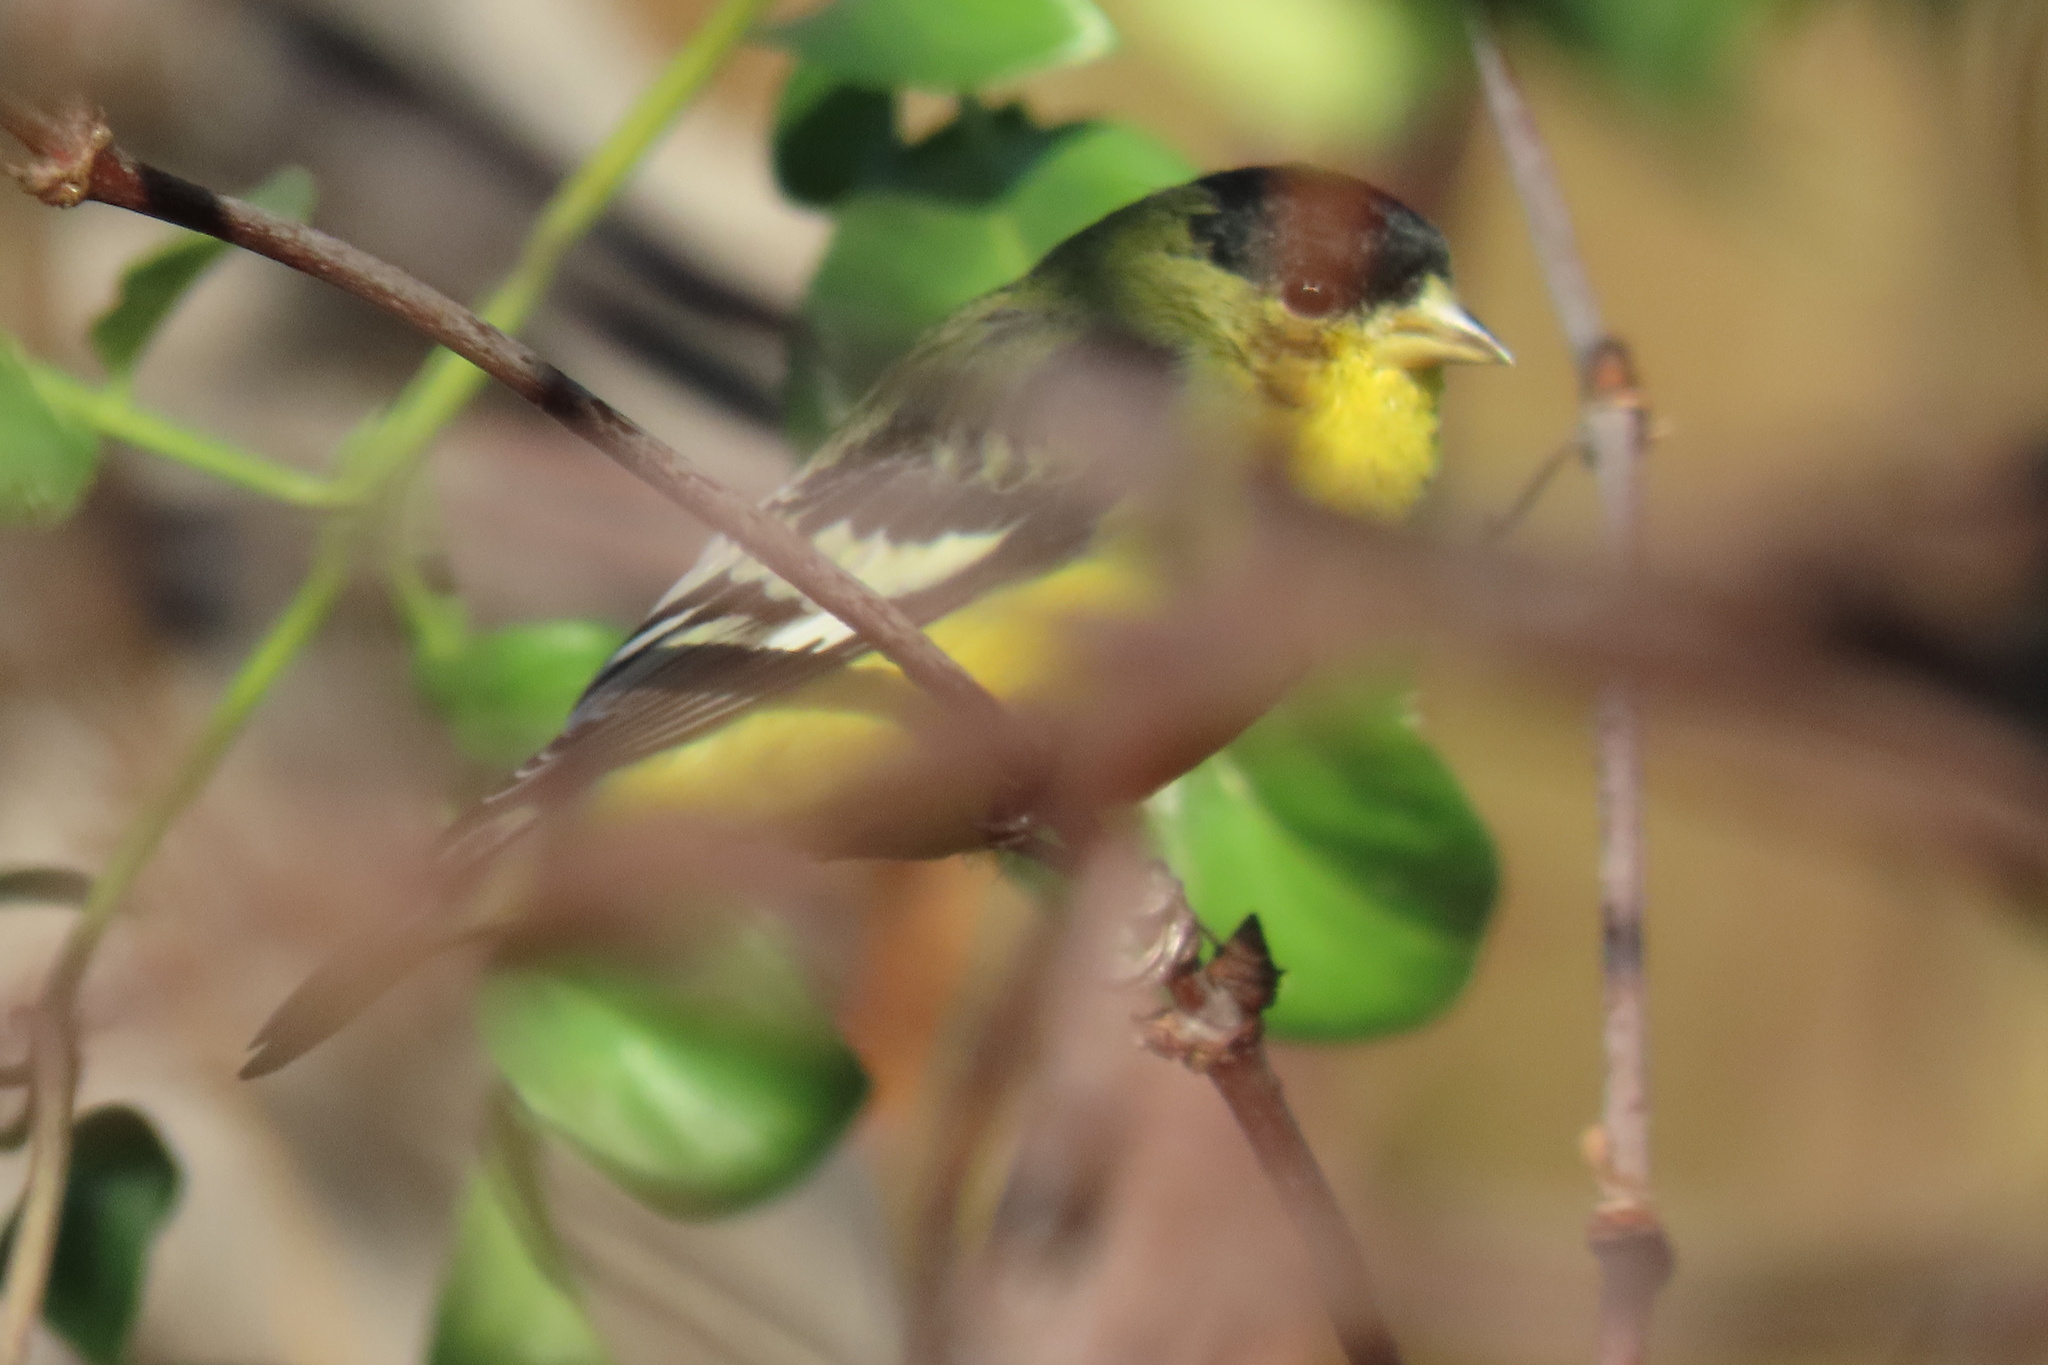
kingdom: Animalia
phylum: Chordata
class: Aves
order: Passeriformes
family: Fringillidae
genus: Spinus
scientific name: Spinus psaltria
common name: Lesser goldfinch
